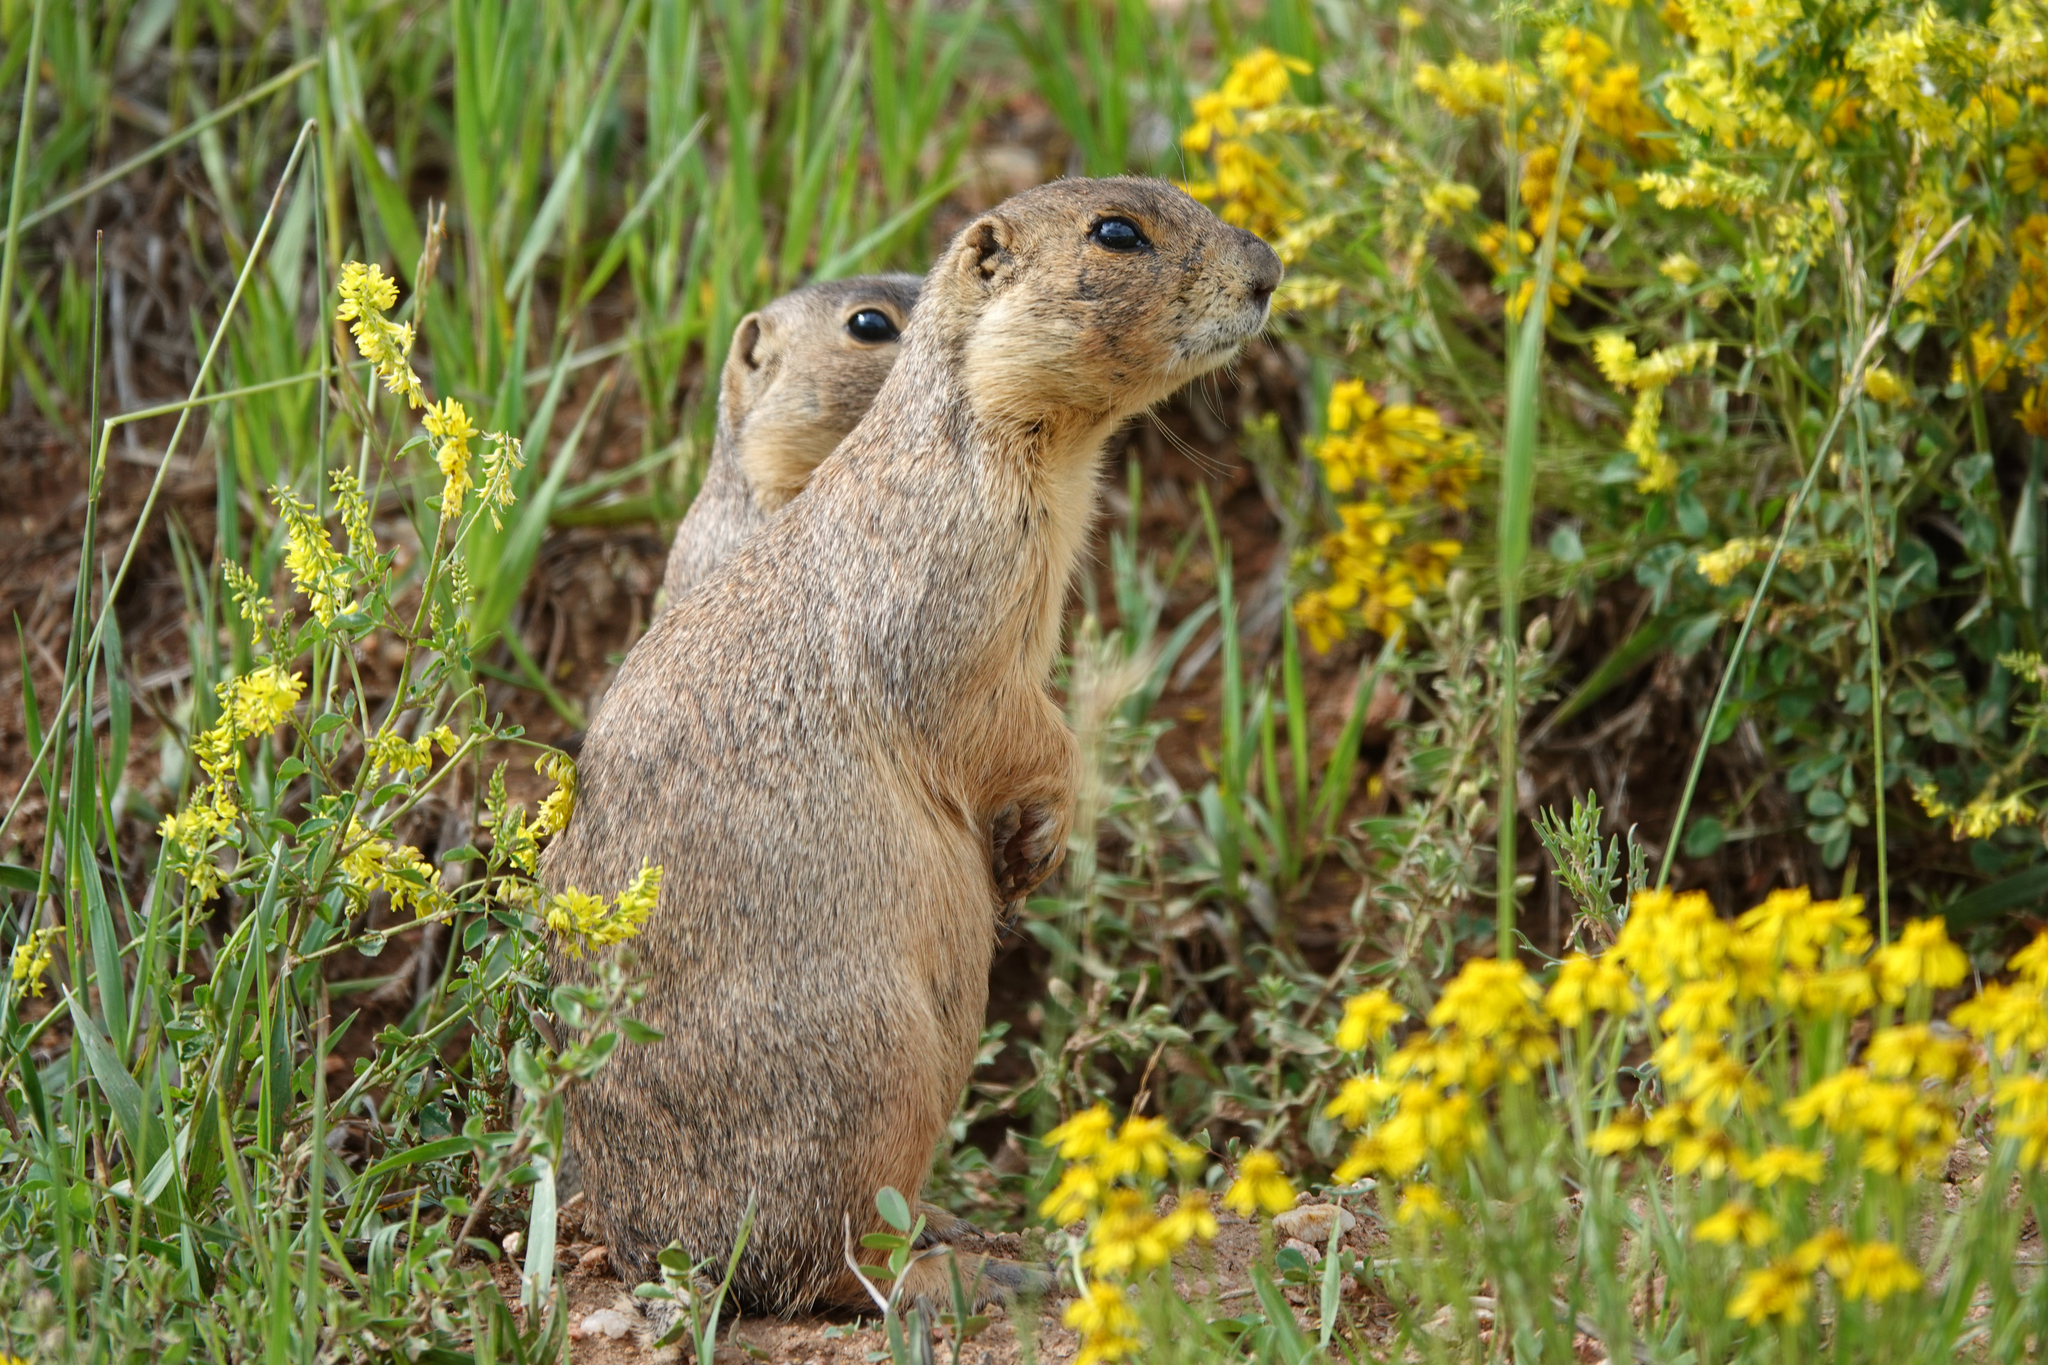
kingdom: Animalia
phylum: Chordata
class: Mammalia
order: Rodentia
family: Sciuridae
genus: Cynomys
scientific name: Cynomys gunnisoni
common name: Gunnison's prairie dog
